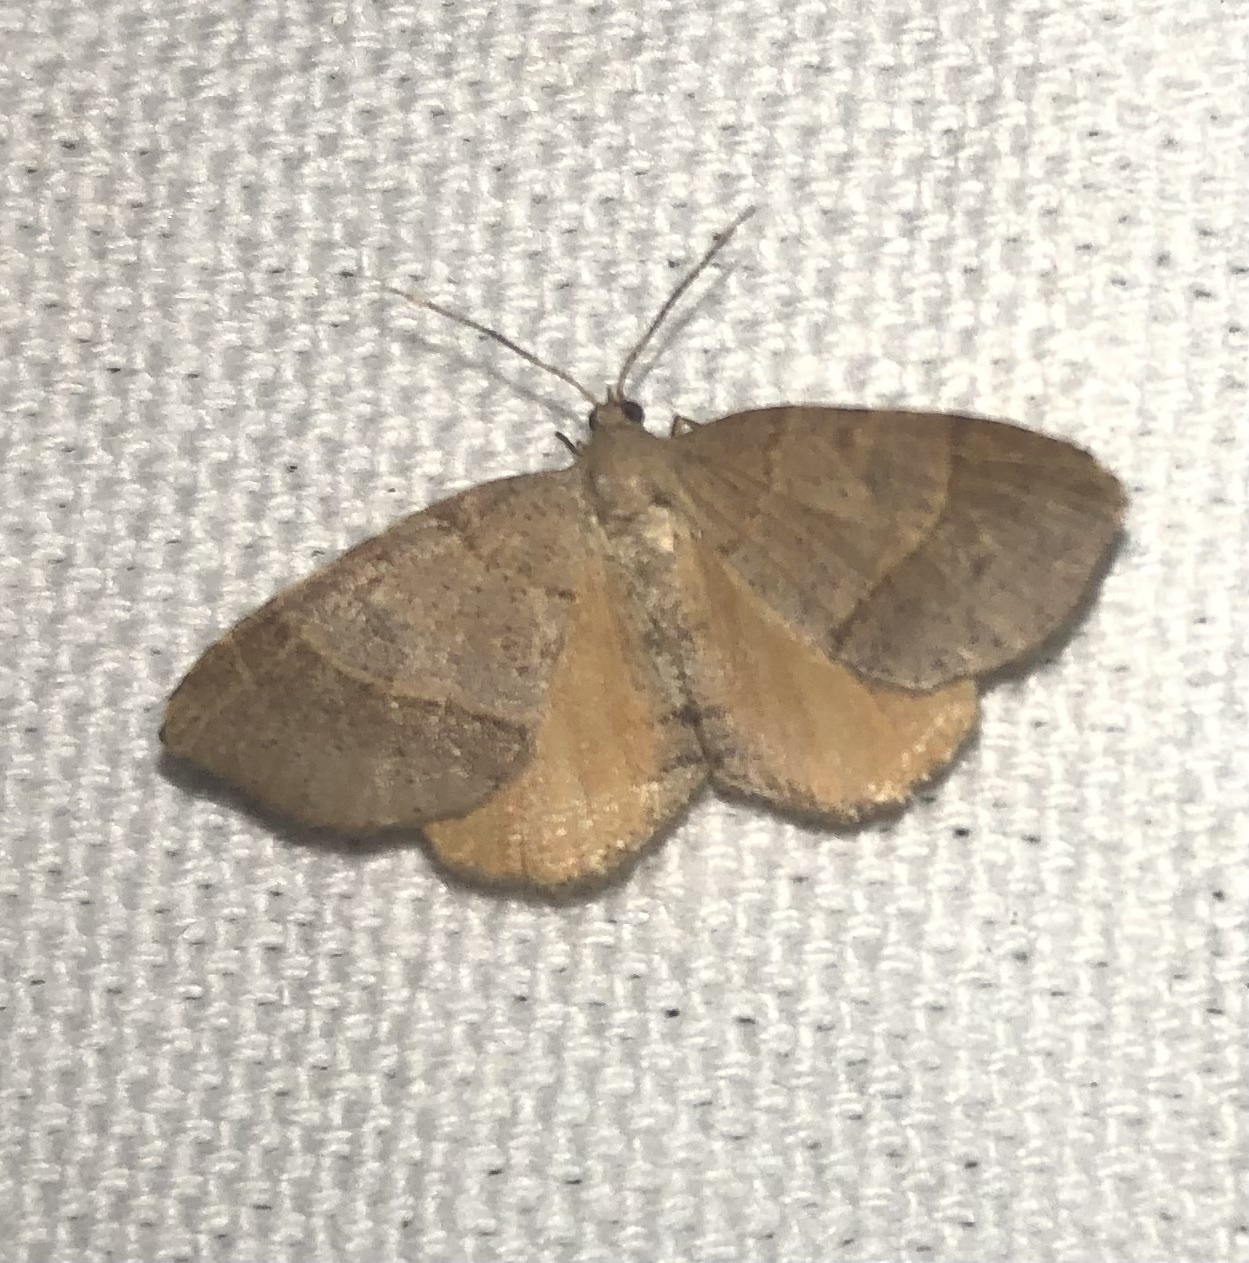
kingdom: Animalia
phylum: Arthropoda
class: Insecta
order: Lepidoptera
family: Geometridae
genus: Mellilla
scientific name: Mellilla xanthometata
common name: Orange wing moth
